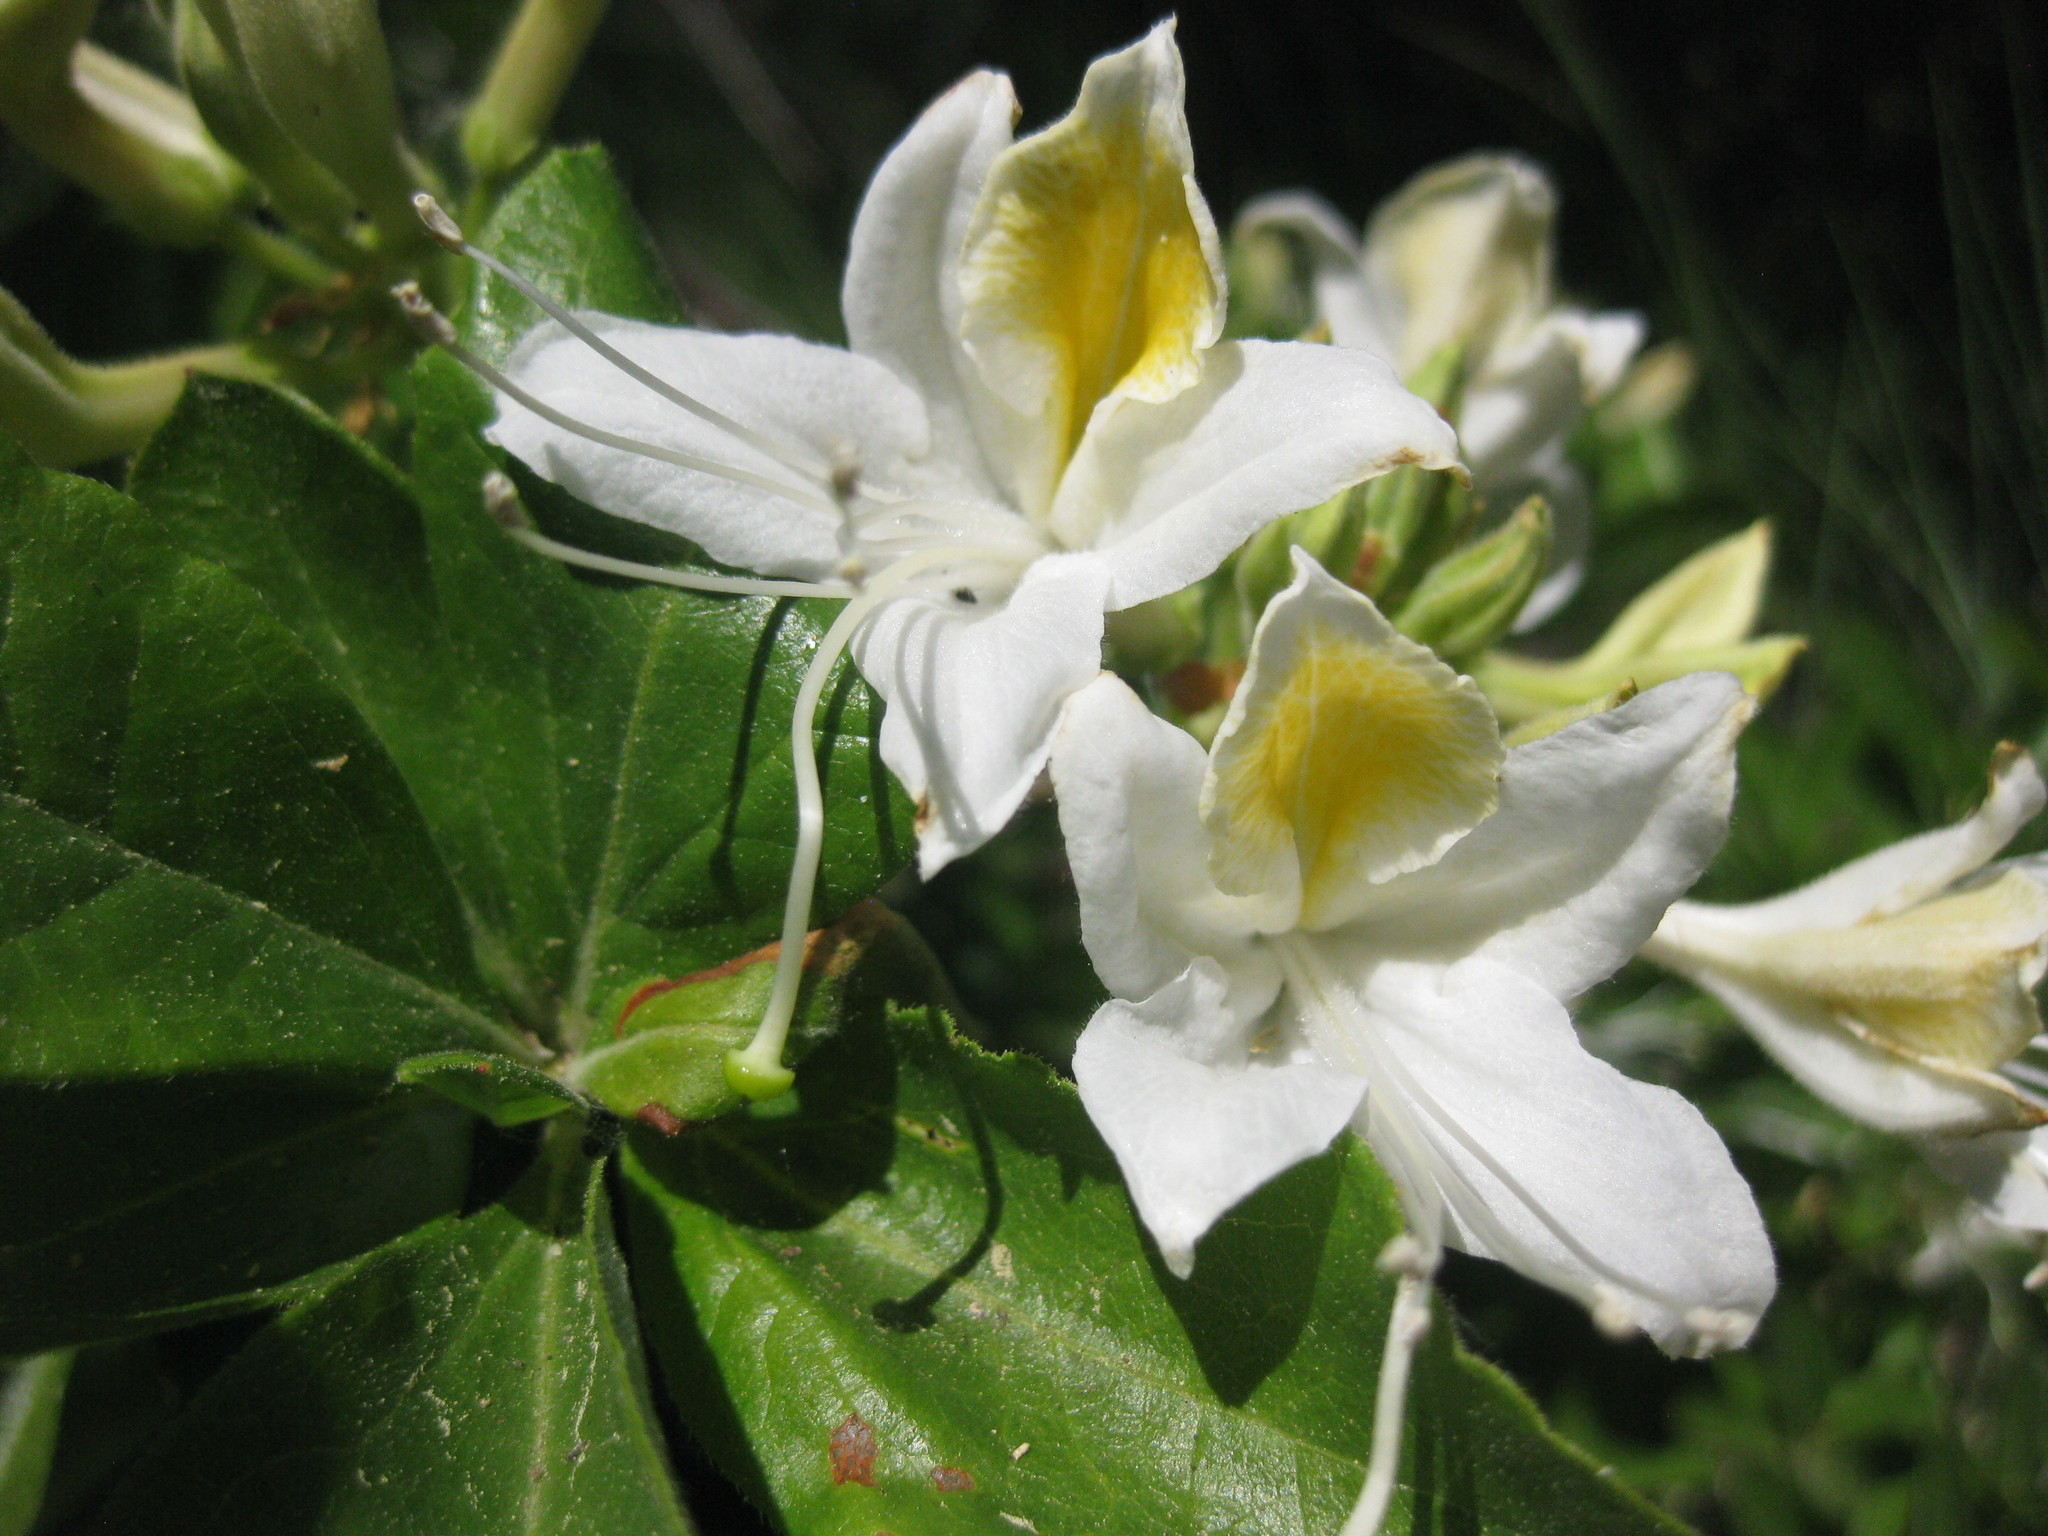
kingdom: Plantae
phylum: Tracheophyta
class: Magnoliopsida
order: Ericales
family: Ericaceae
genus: Rhododendron
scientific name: Rhododendron occidentale
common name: Western azalea
